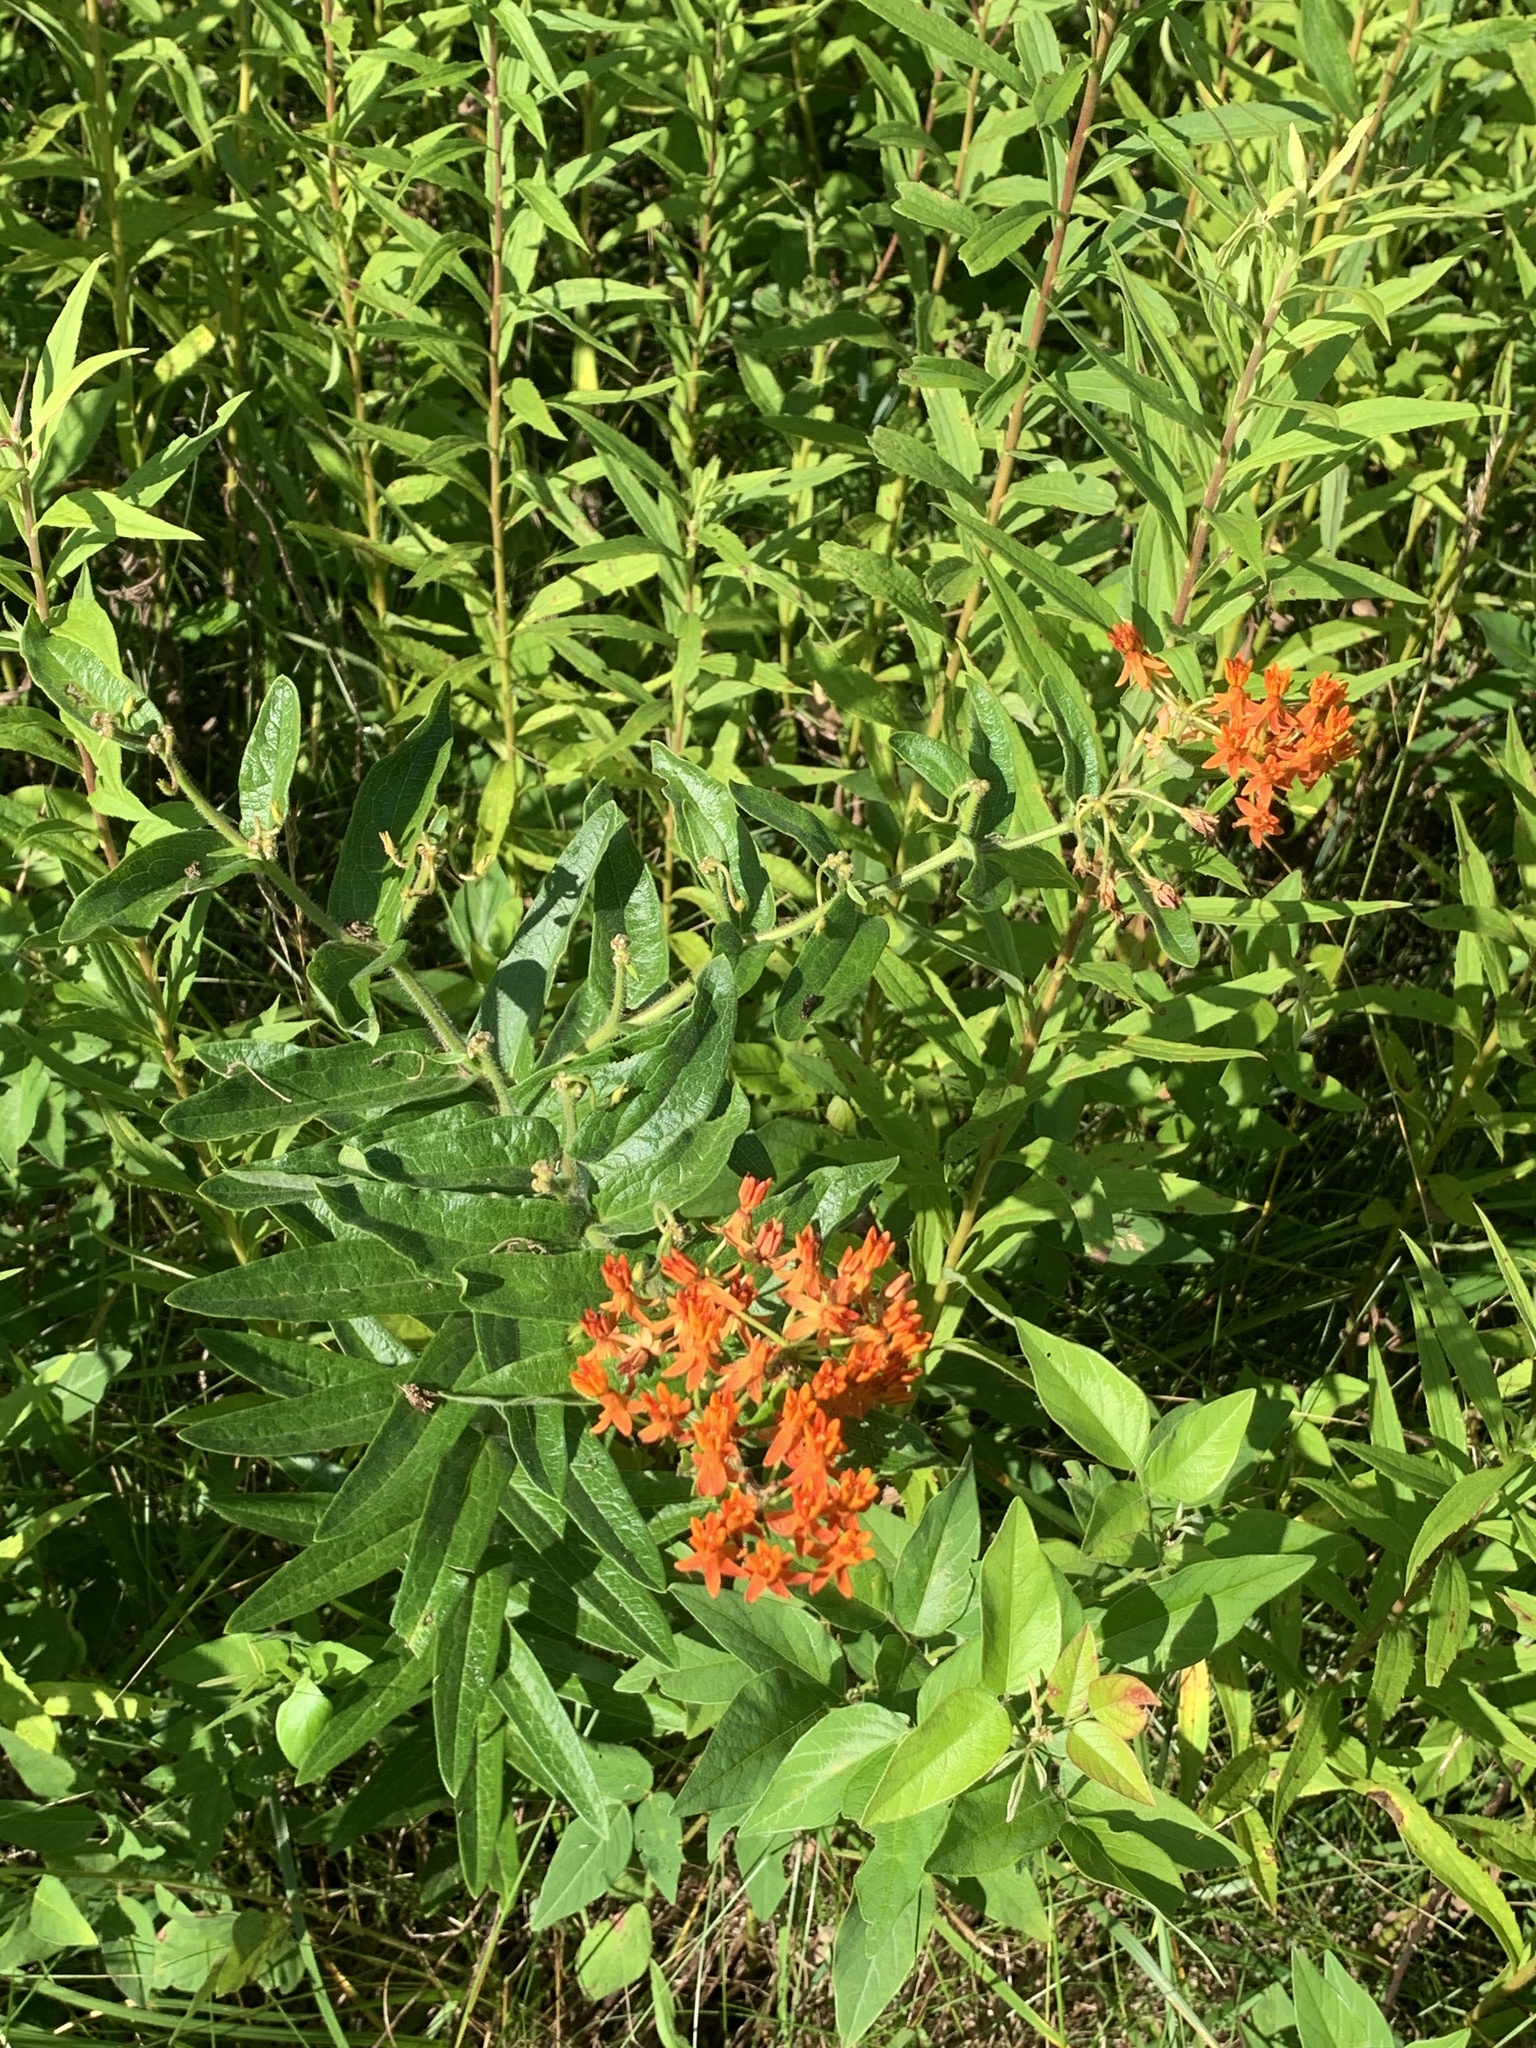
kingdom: Plantae
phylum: Tracheophyta
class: Magnoliopsida
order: Gentianales
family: Apocynaceae
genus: Asclepias
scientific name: Asclepias tuberosa
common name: Butterfly milkweed
